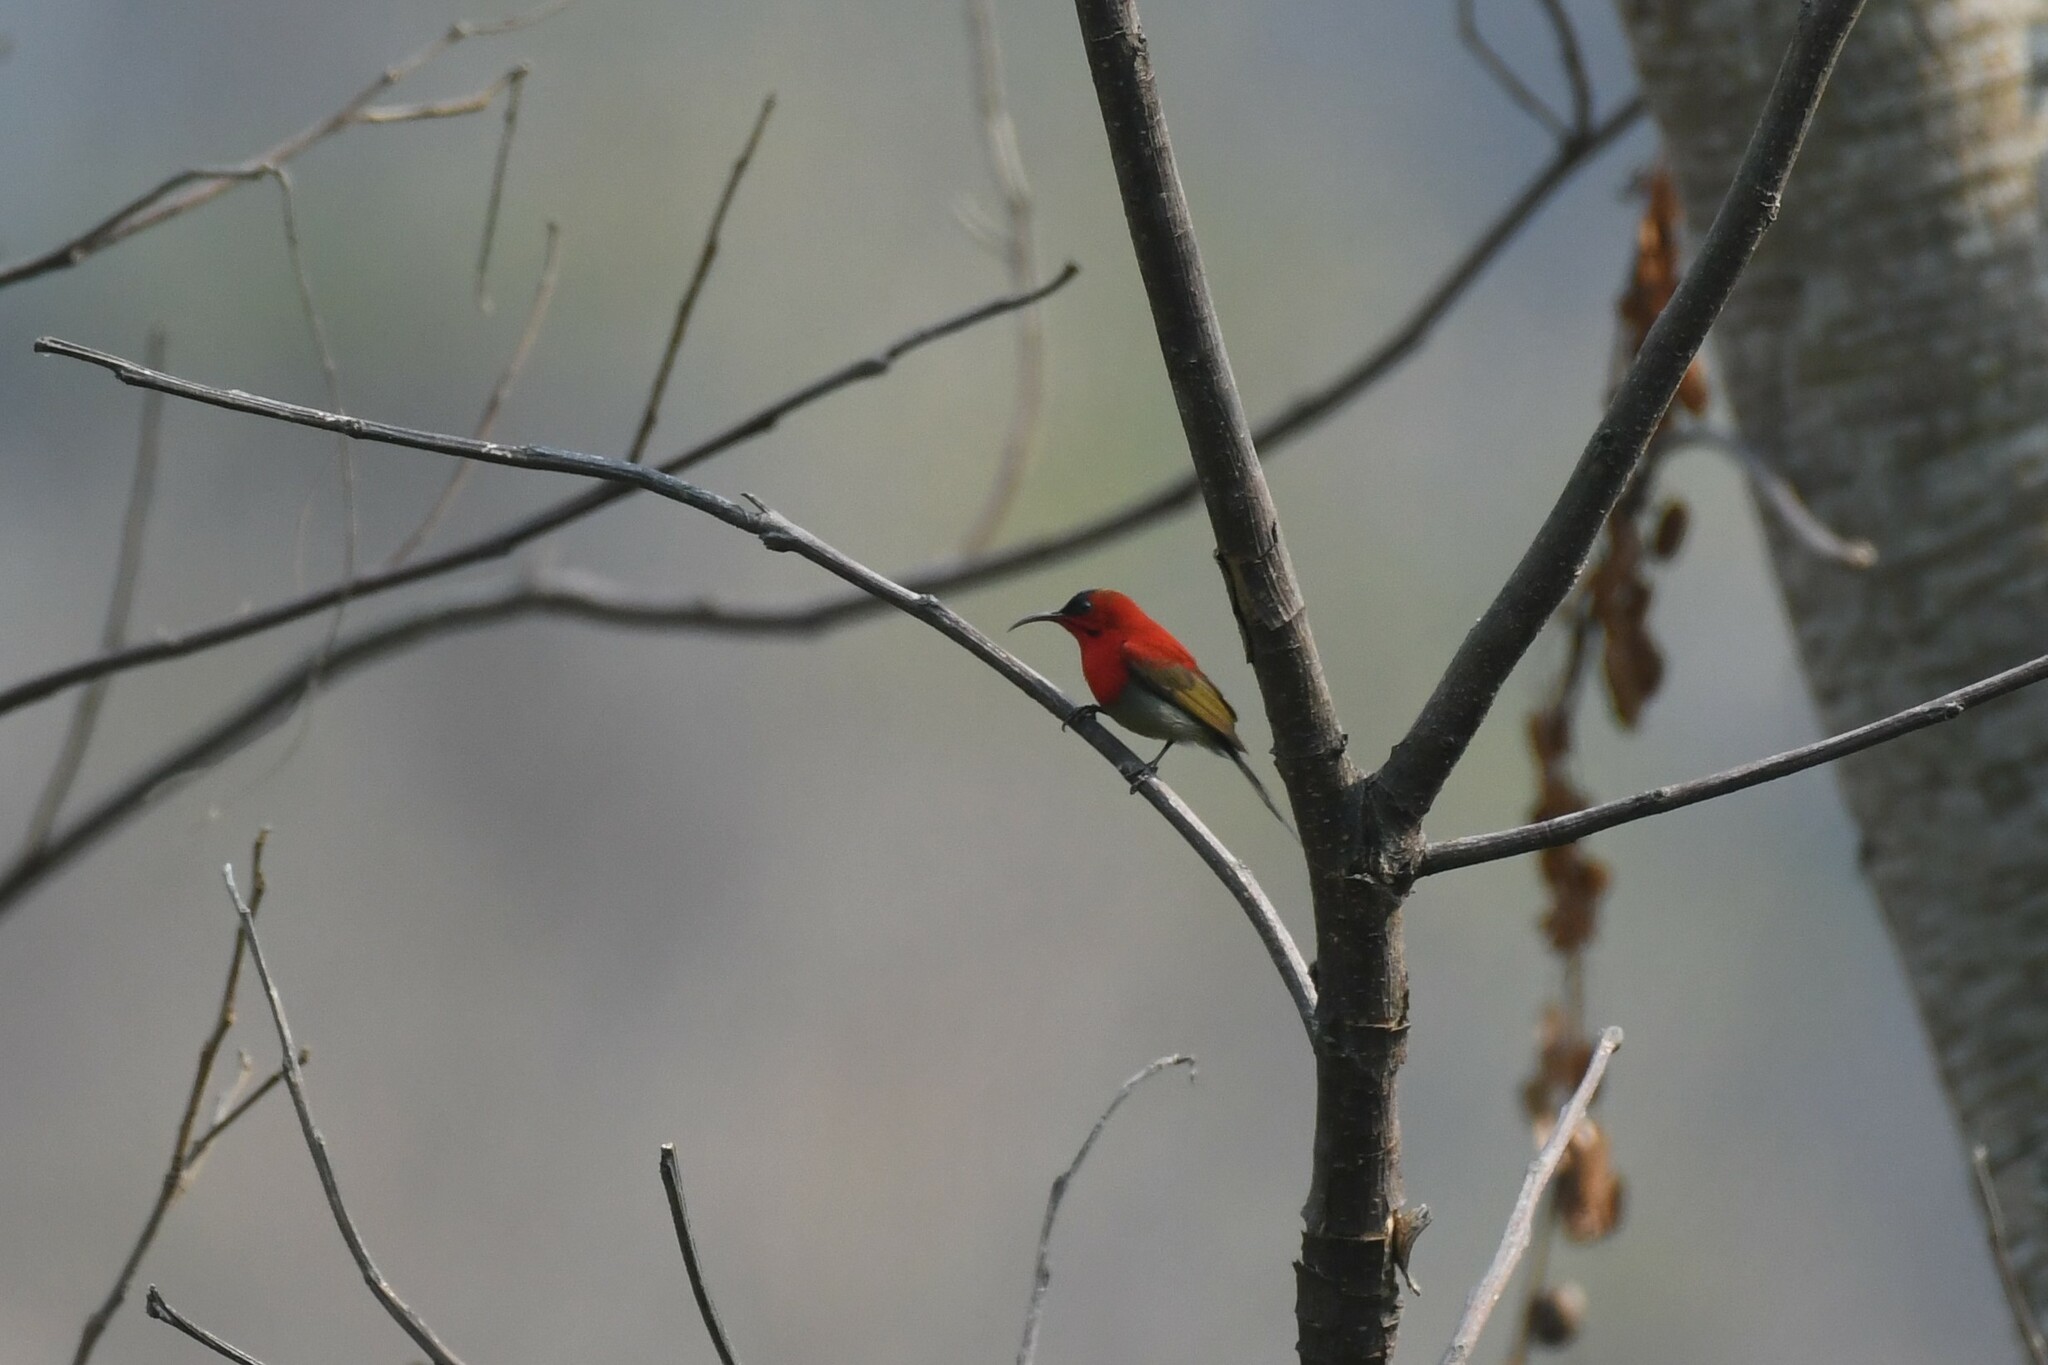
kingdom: Animalia
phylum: Chordata
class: Aves
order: Passeriformes
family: Nectariniidae
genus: Aethopyga
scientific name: Aethopyga siparaja
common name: Crimson sunbird
